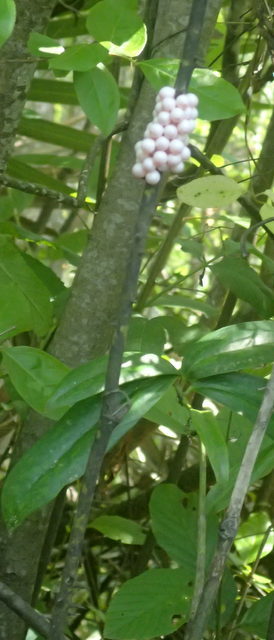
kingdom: Animalia
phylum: Mollusca
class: Gastropoda
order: Architaenioglossa
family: Ampullariidae
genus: Pomacea
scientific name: Pomacea paludosa
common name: Florida applesnail
